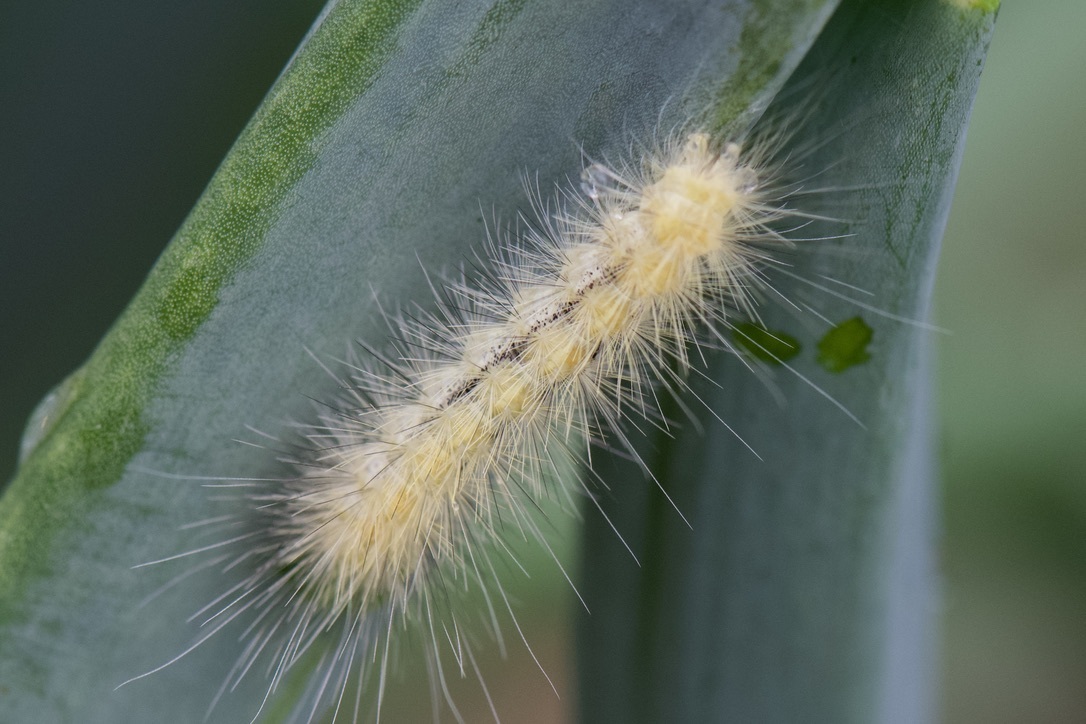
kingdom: Animalia
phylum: Arthropoda
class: Insecta
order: Lepidoptera
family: Erebidae
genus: Spilosoma
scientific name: Spilosoma virginica
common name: Virginia tiger moth
